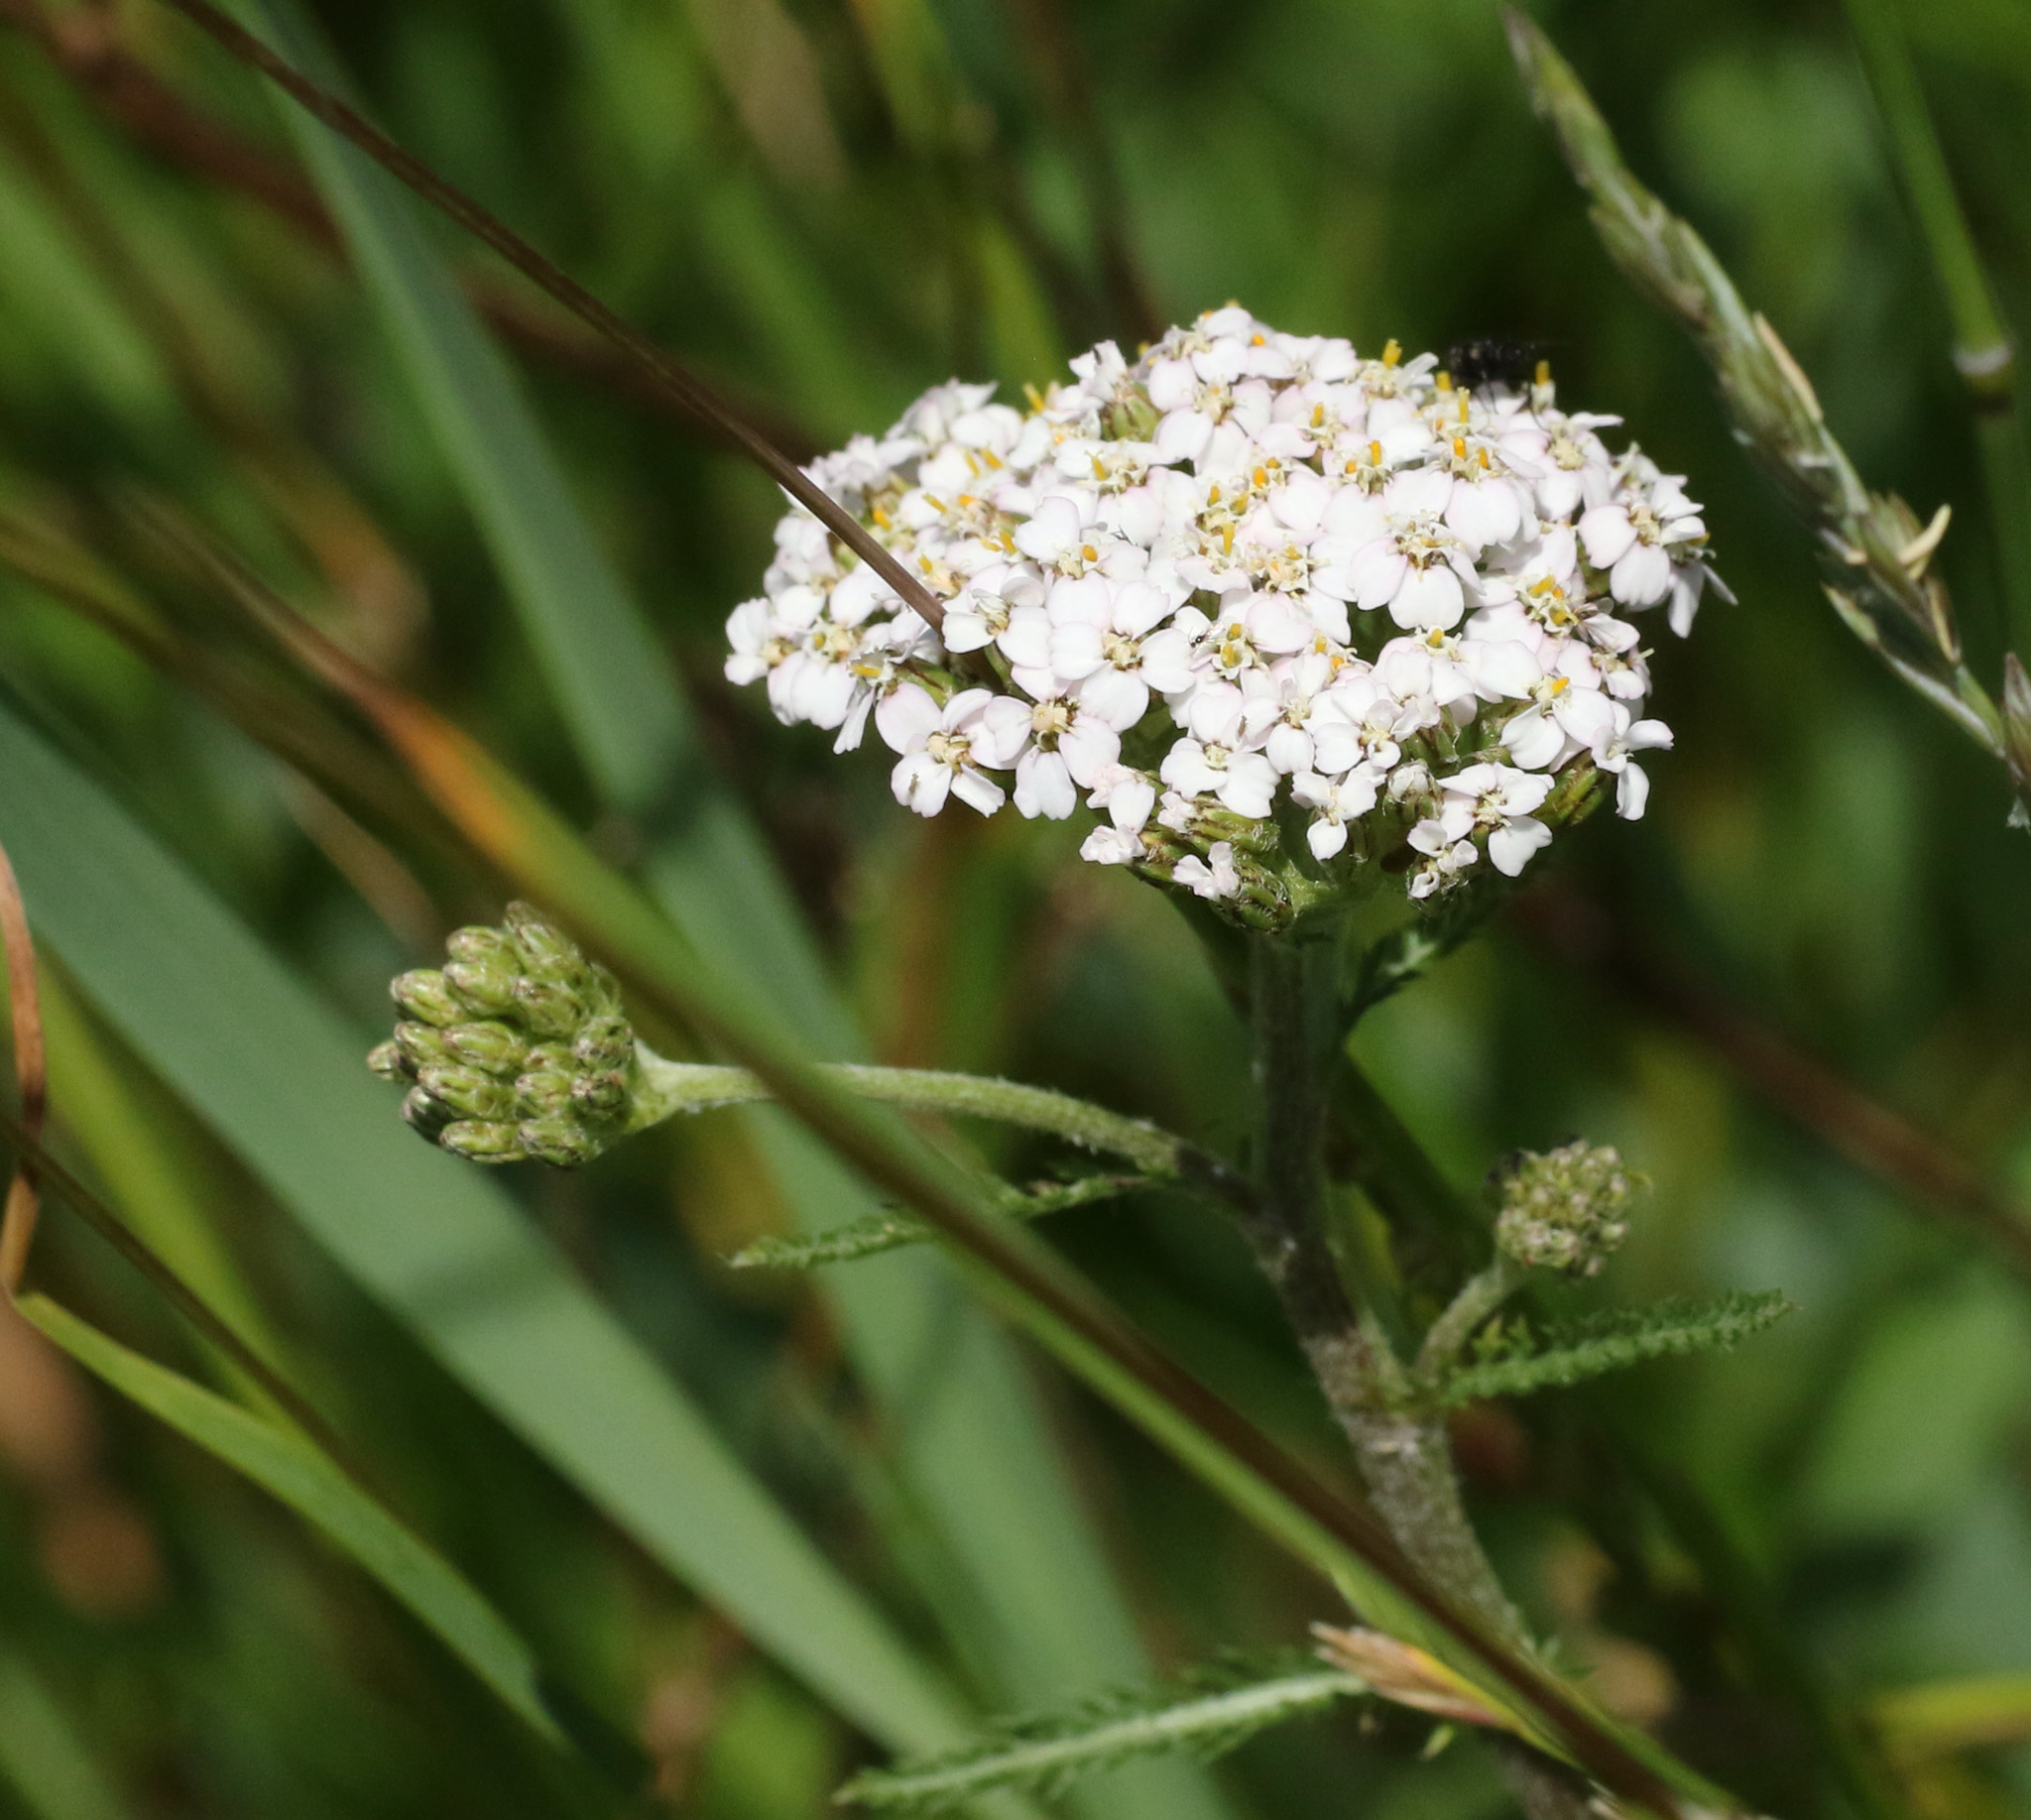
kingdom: Plantae
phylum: Tracheophyta
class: Magnoliopsida
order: Asterales
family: Asteraceae
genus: Achillea
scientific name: Achillea millefolium
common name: Yarrow
